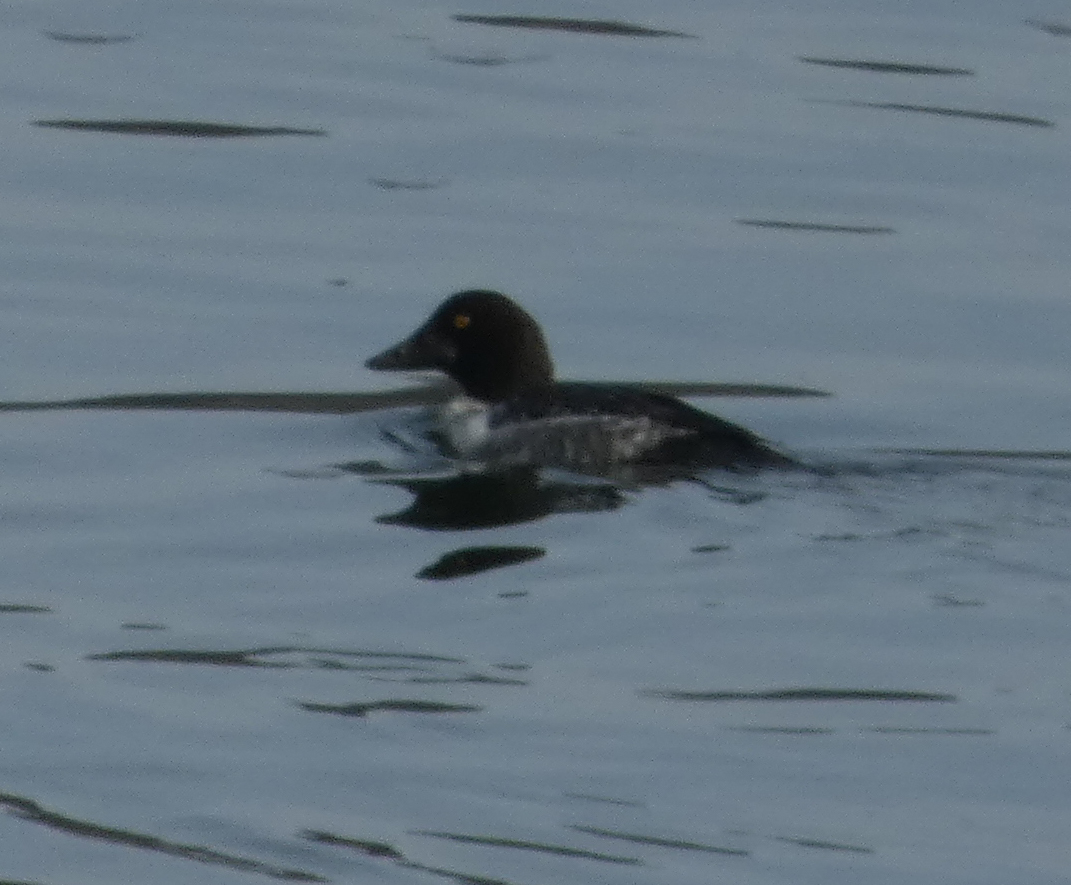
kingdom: Animalia
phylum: Chordata
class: Aves
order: Anseriformes
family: Anatidae
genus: Bucephala
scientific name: Bucephala clangula
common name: Common goldeneye
